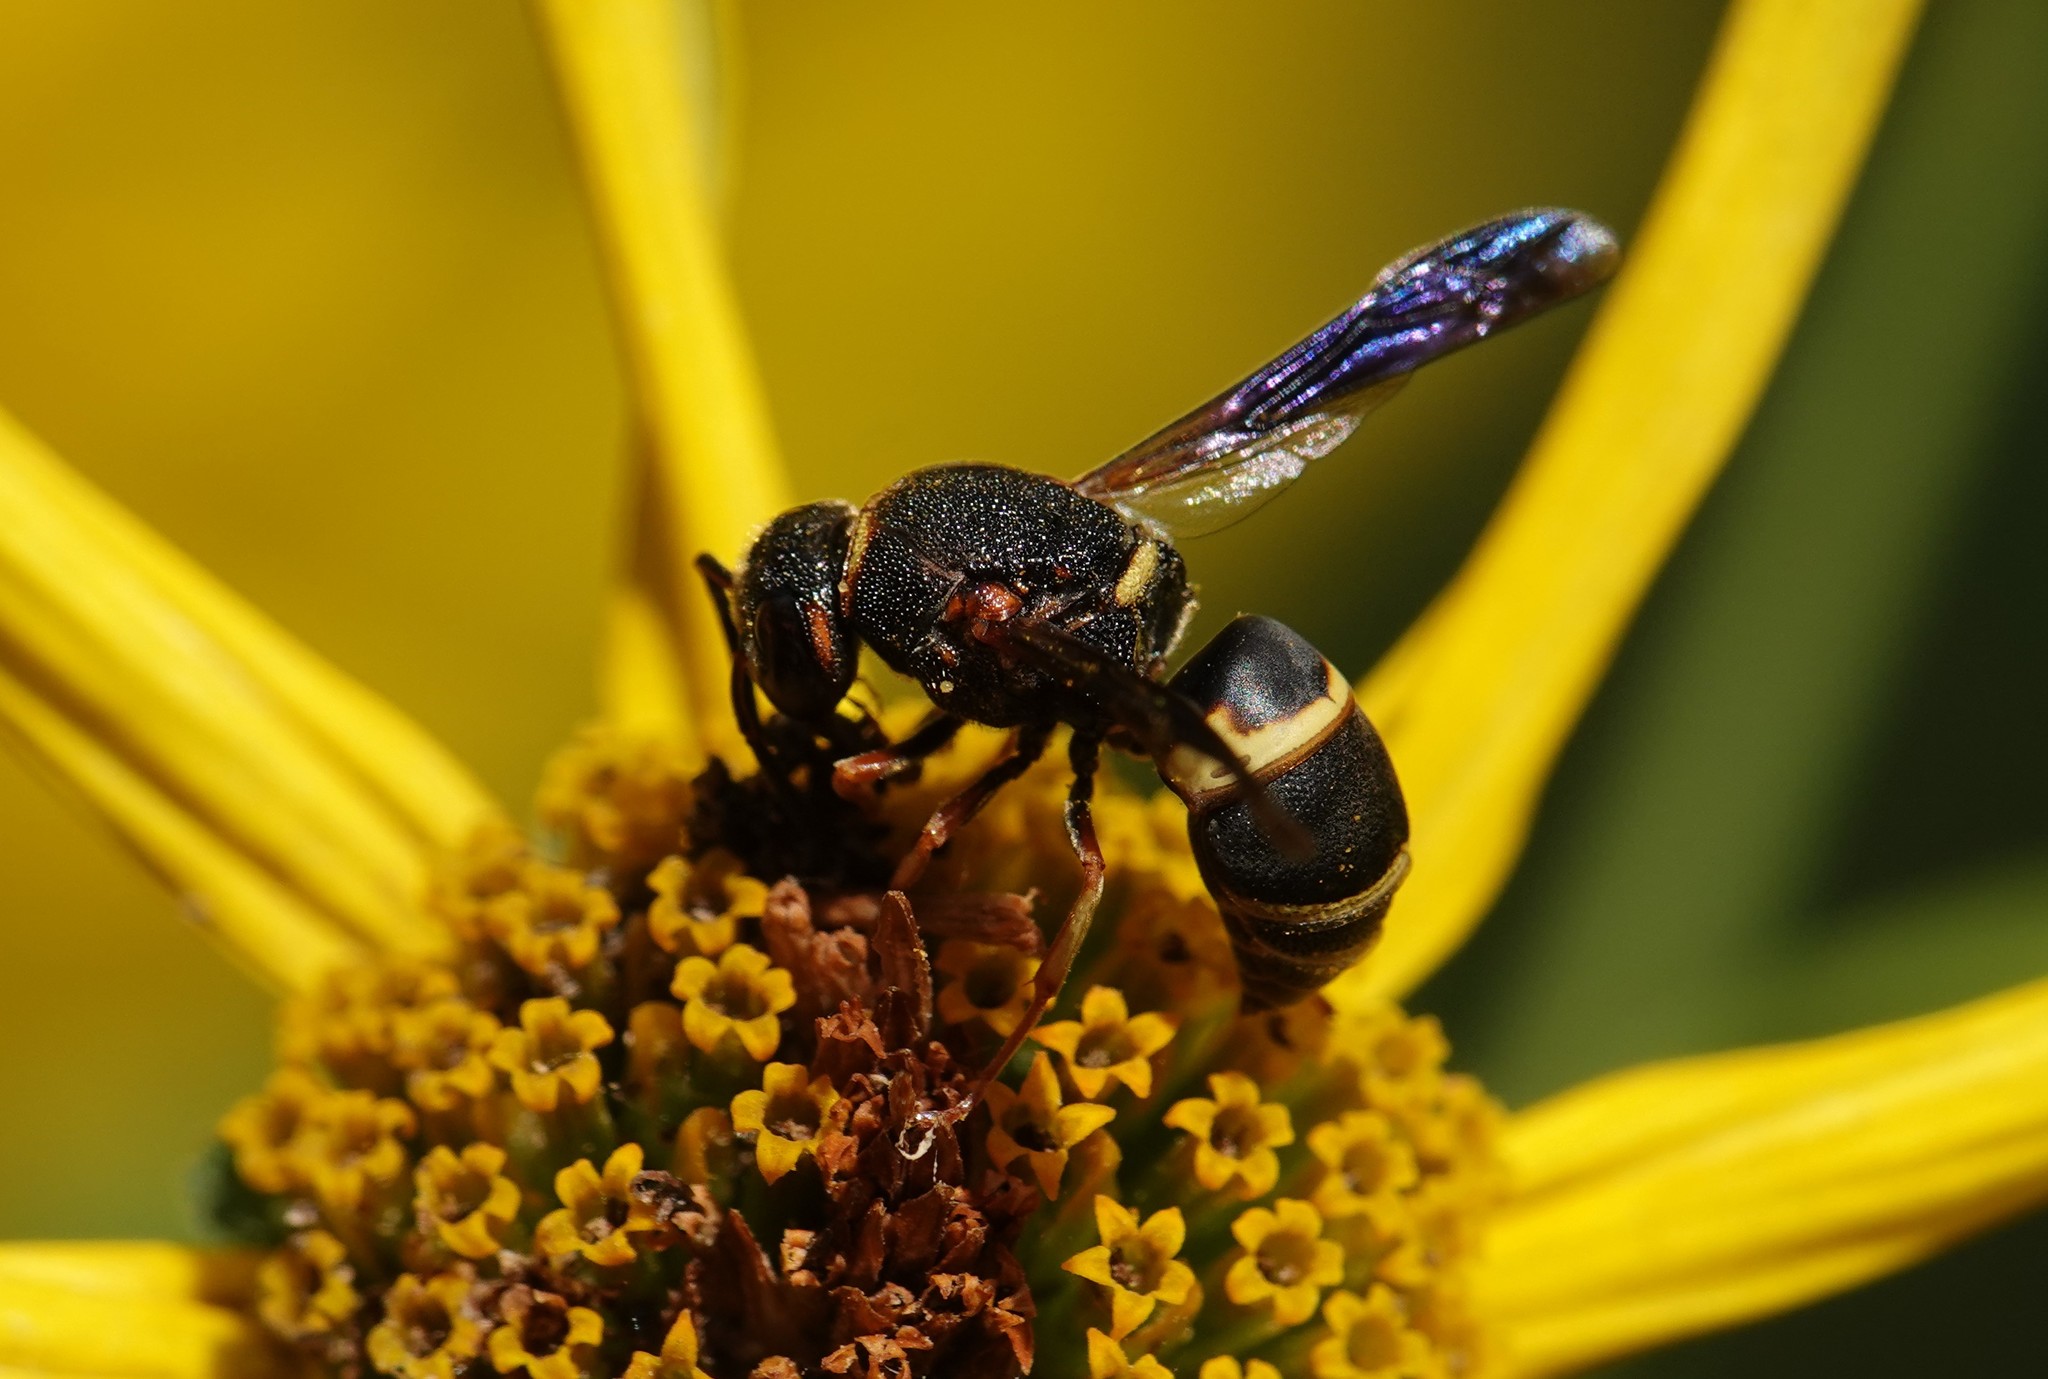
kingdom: Animalia
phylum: Arthropoda
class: Insecta
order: Hymenoptera
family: Eumenidae
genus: Euodynerus
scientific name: Euodynerus hidalgo
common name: Wasp
